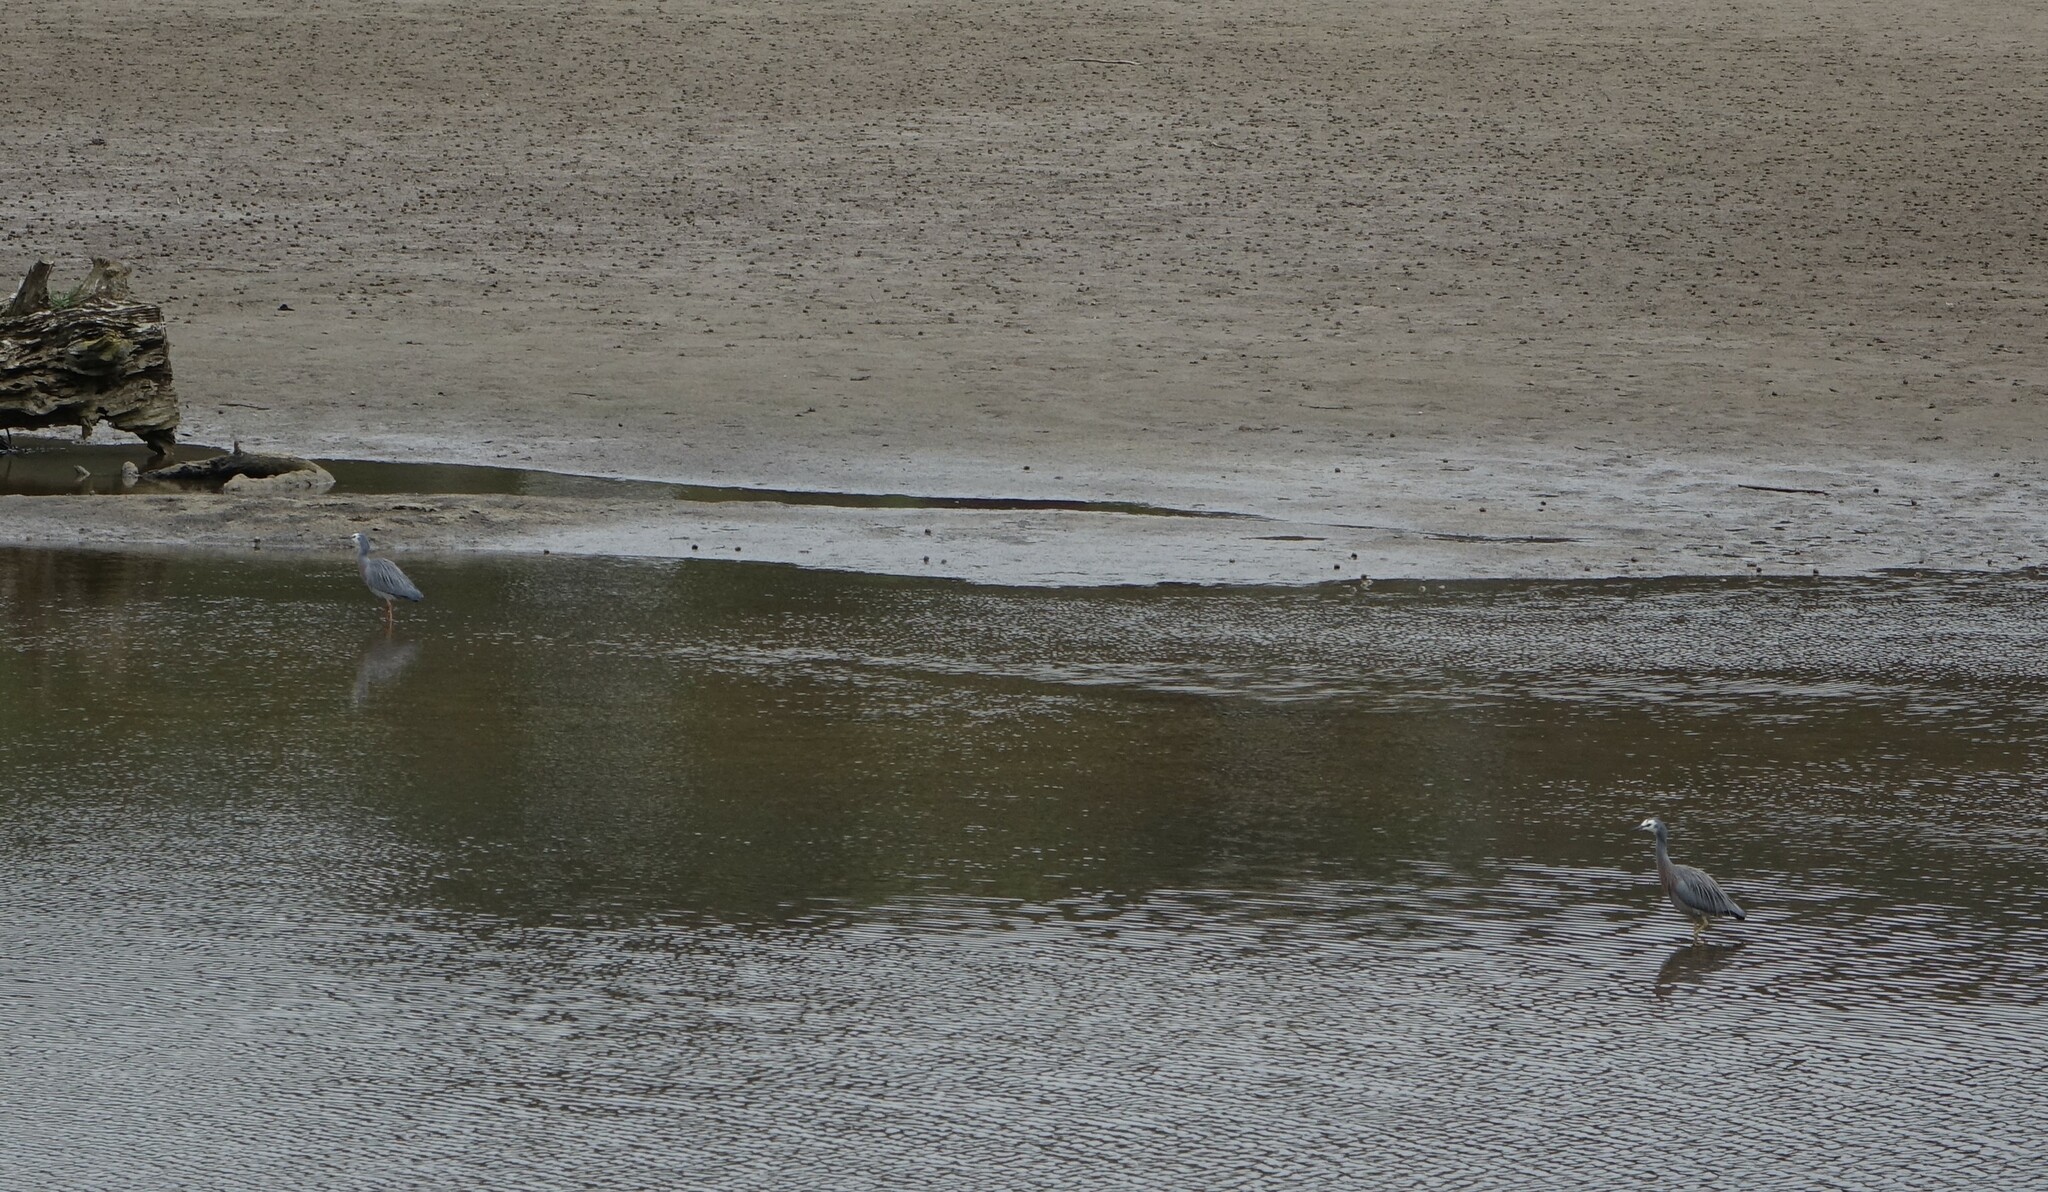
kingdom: Animalia
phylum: Chordata
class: Aves
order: Pelecaniformes
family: Ardeidae
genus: Egretta
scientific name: Egretta novaehollandiae
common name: White-faced heron
